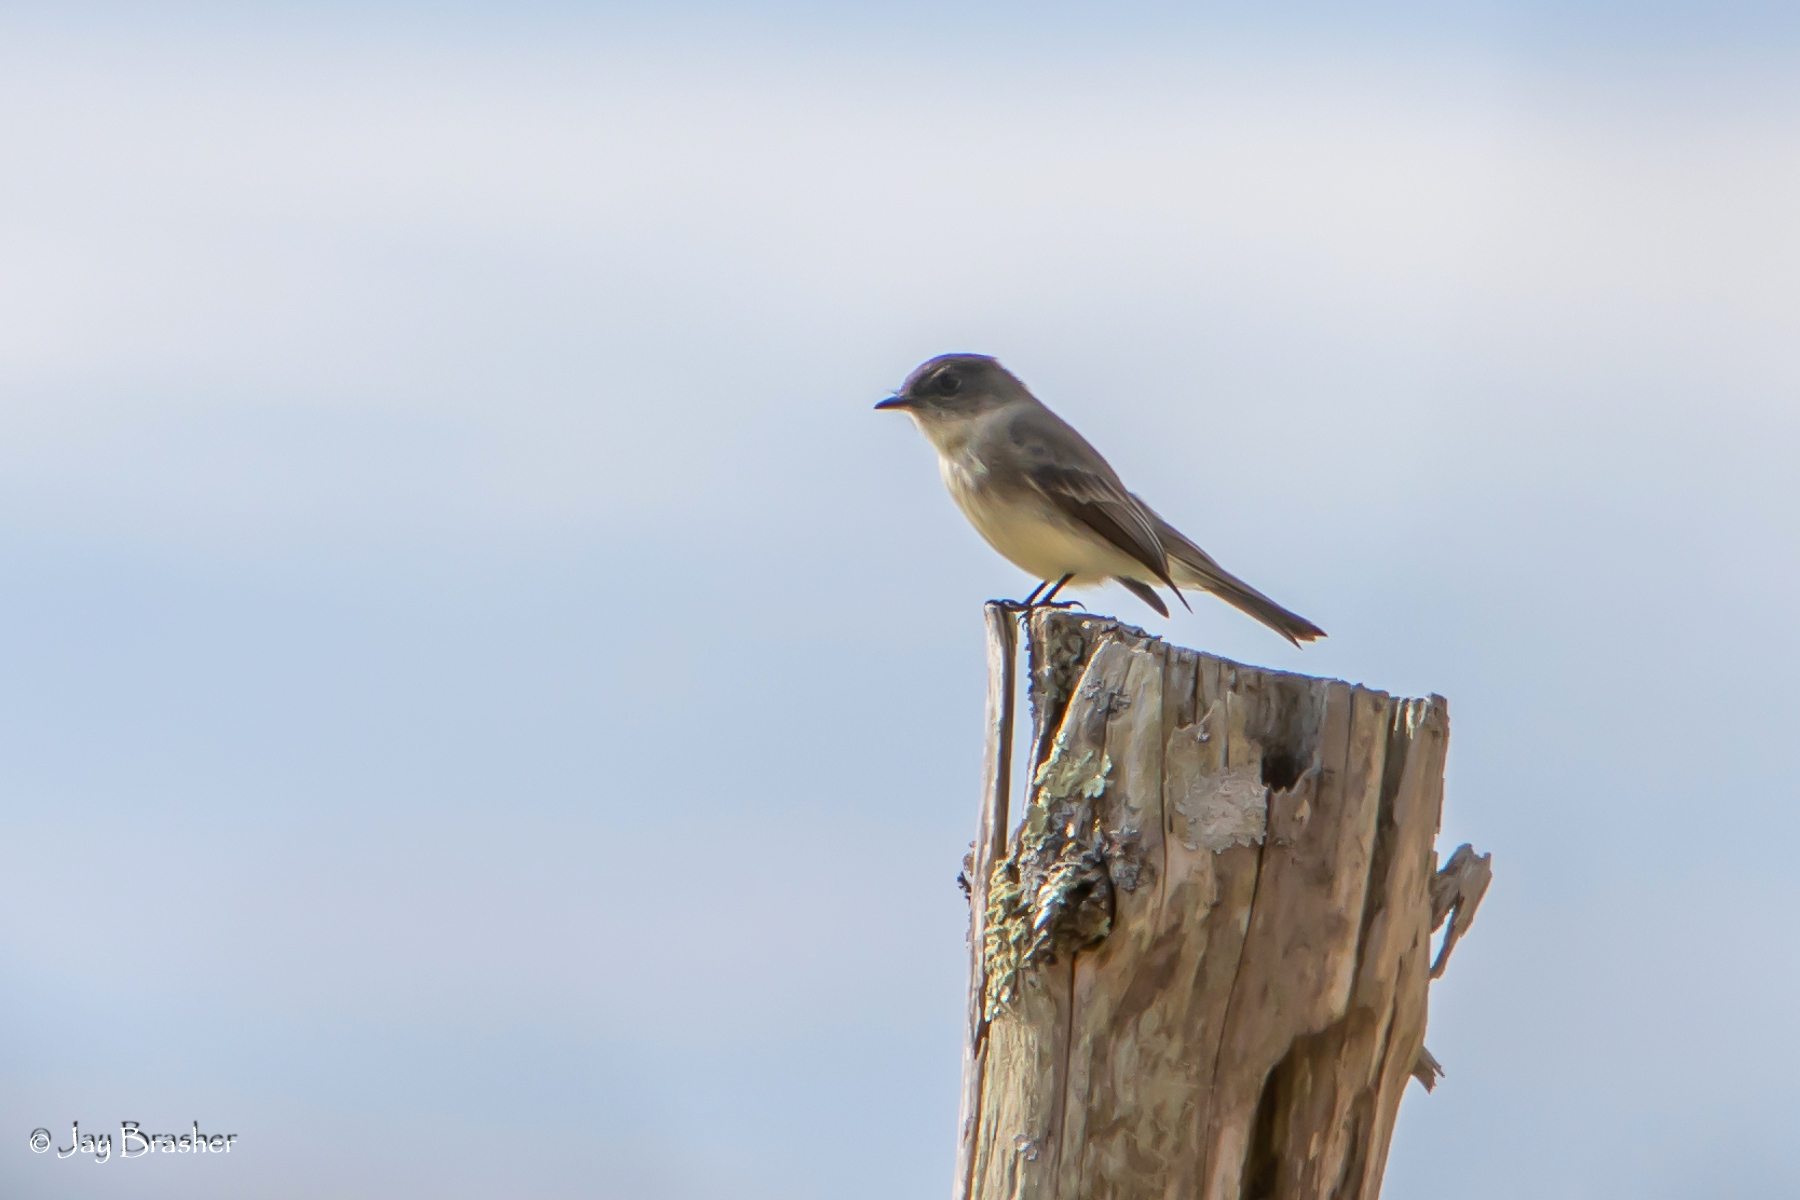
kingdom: Animalia
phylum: Chordata
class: Aves
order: Passeriformes
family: Tyrannidae
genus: Sayornis
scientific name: Sayornis phoebe
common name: Eastern phoebe
